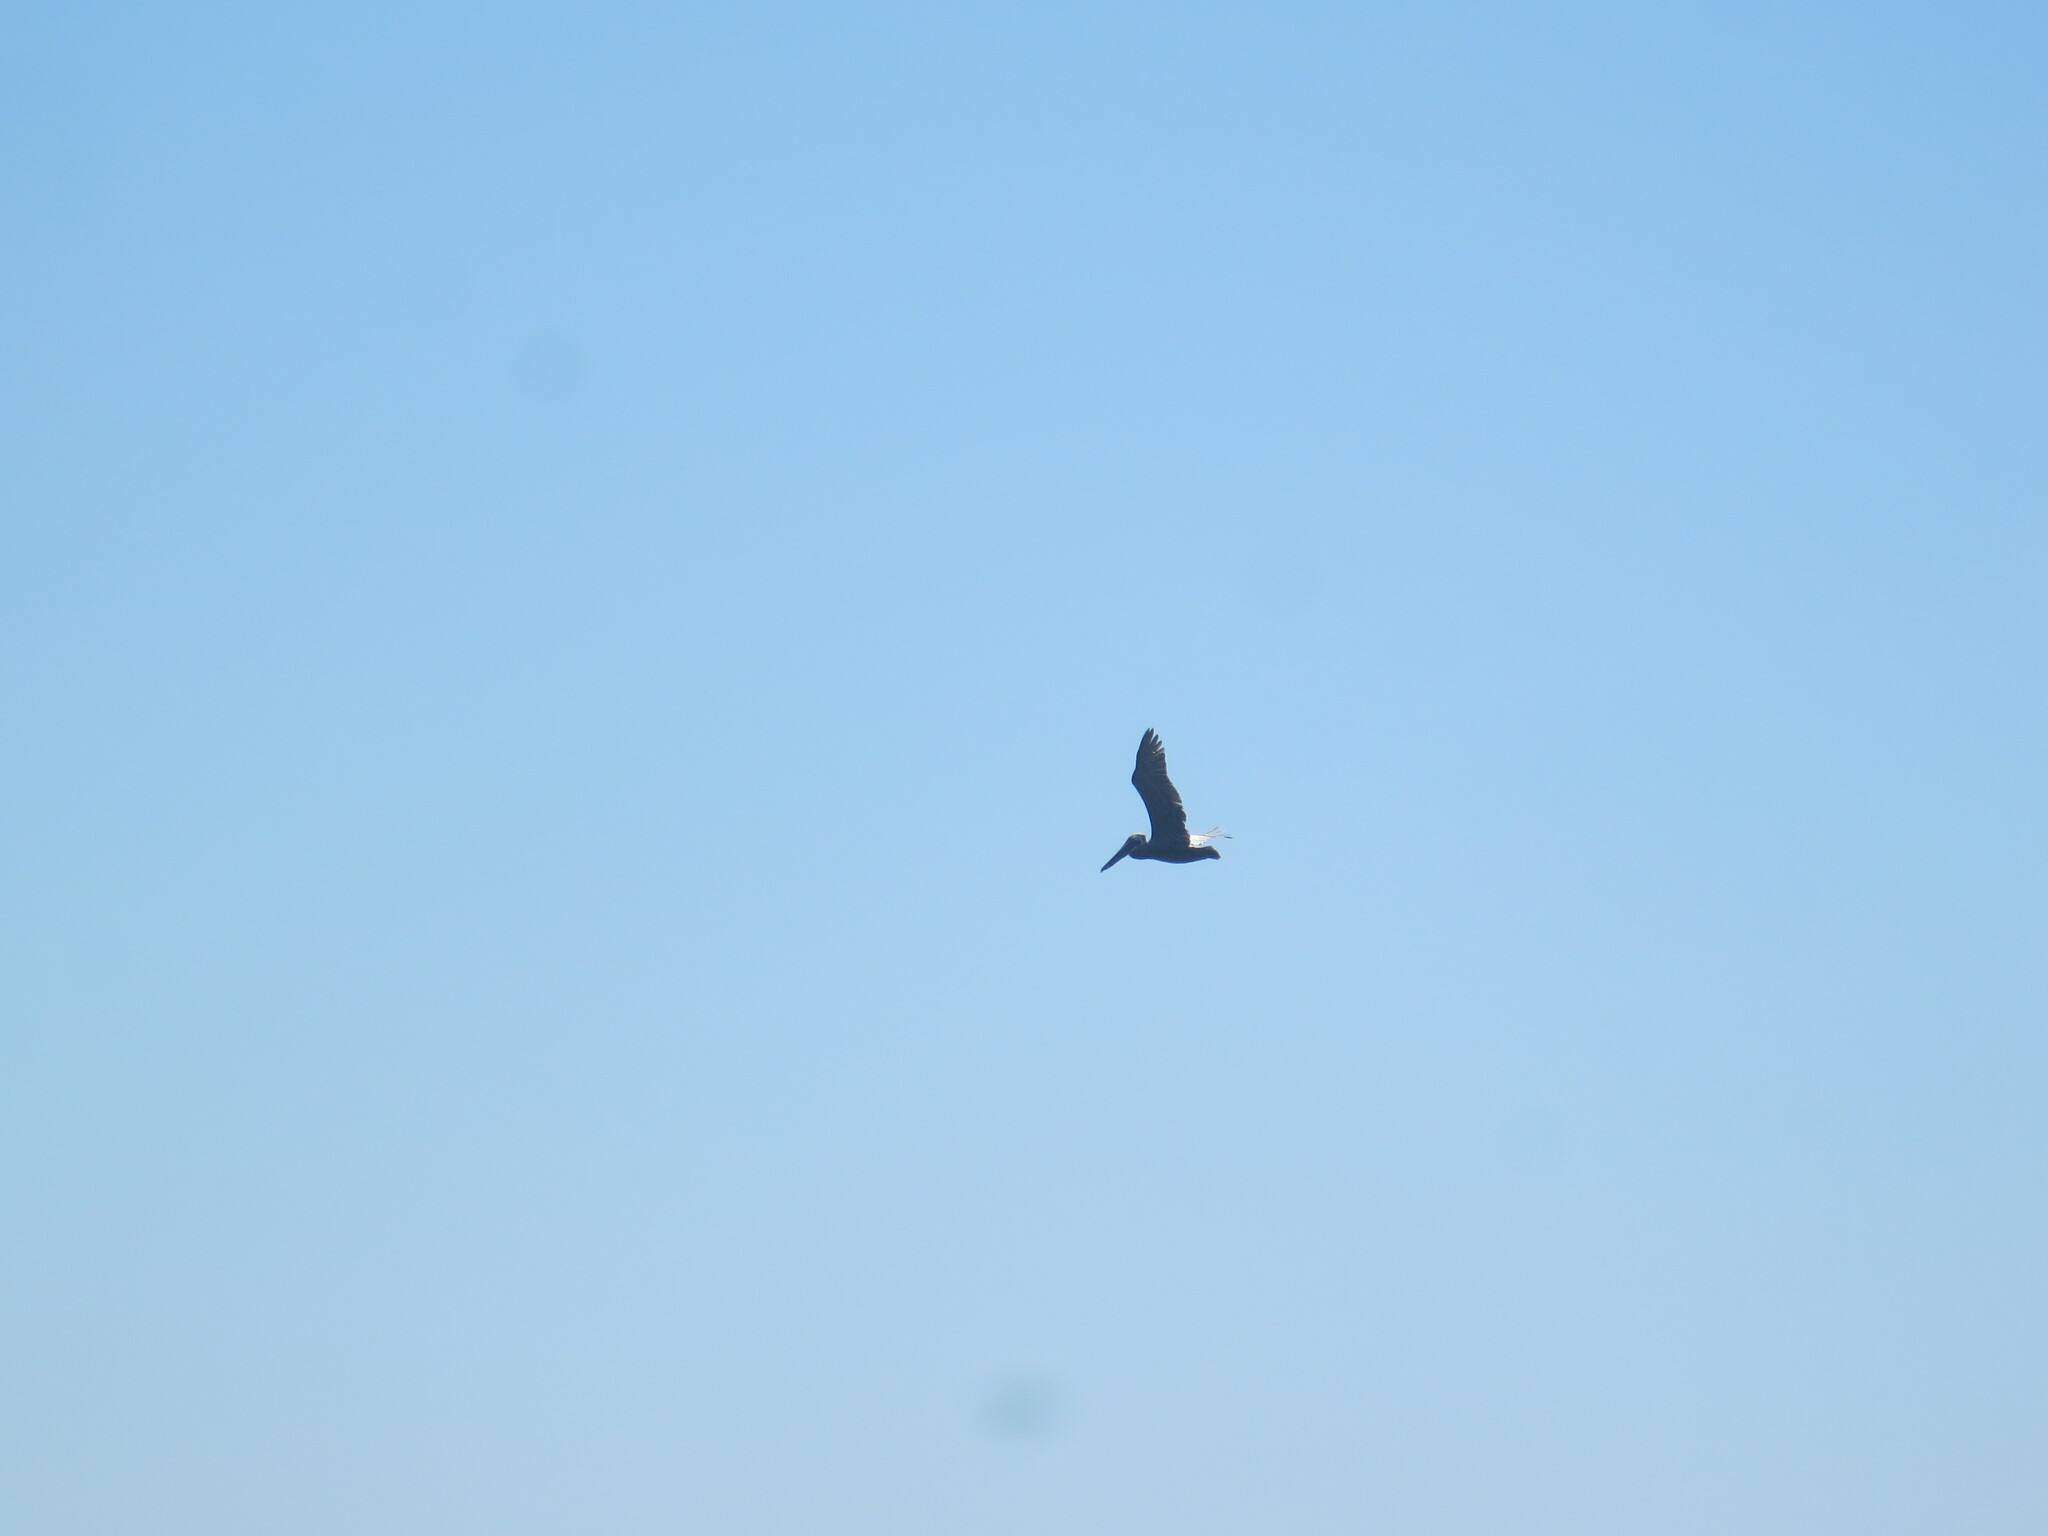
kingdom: Animalia
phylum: Chordata
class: Aves
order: Pelecaniformes
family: Pelecanidae
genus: Pelecanus
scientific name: Pelecanus occidentalis
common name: Brown pelican
